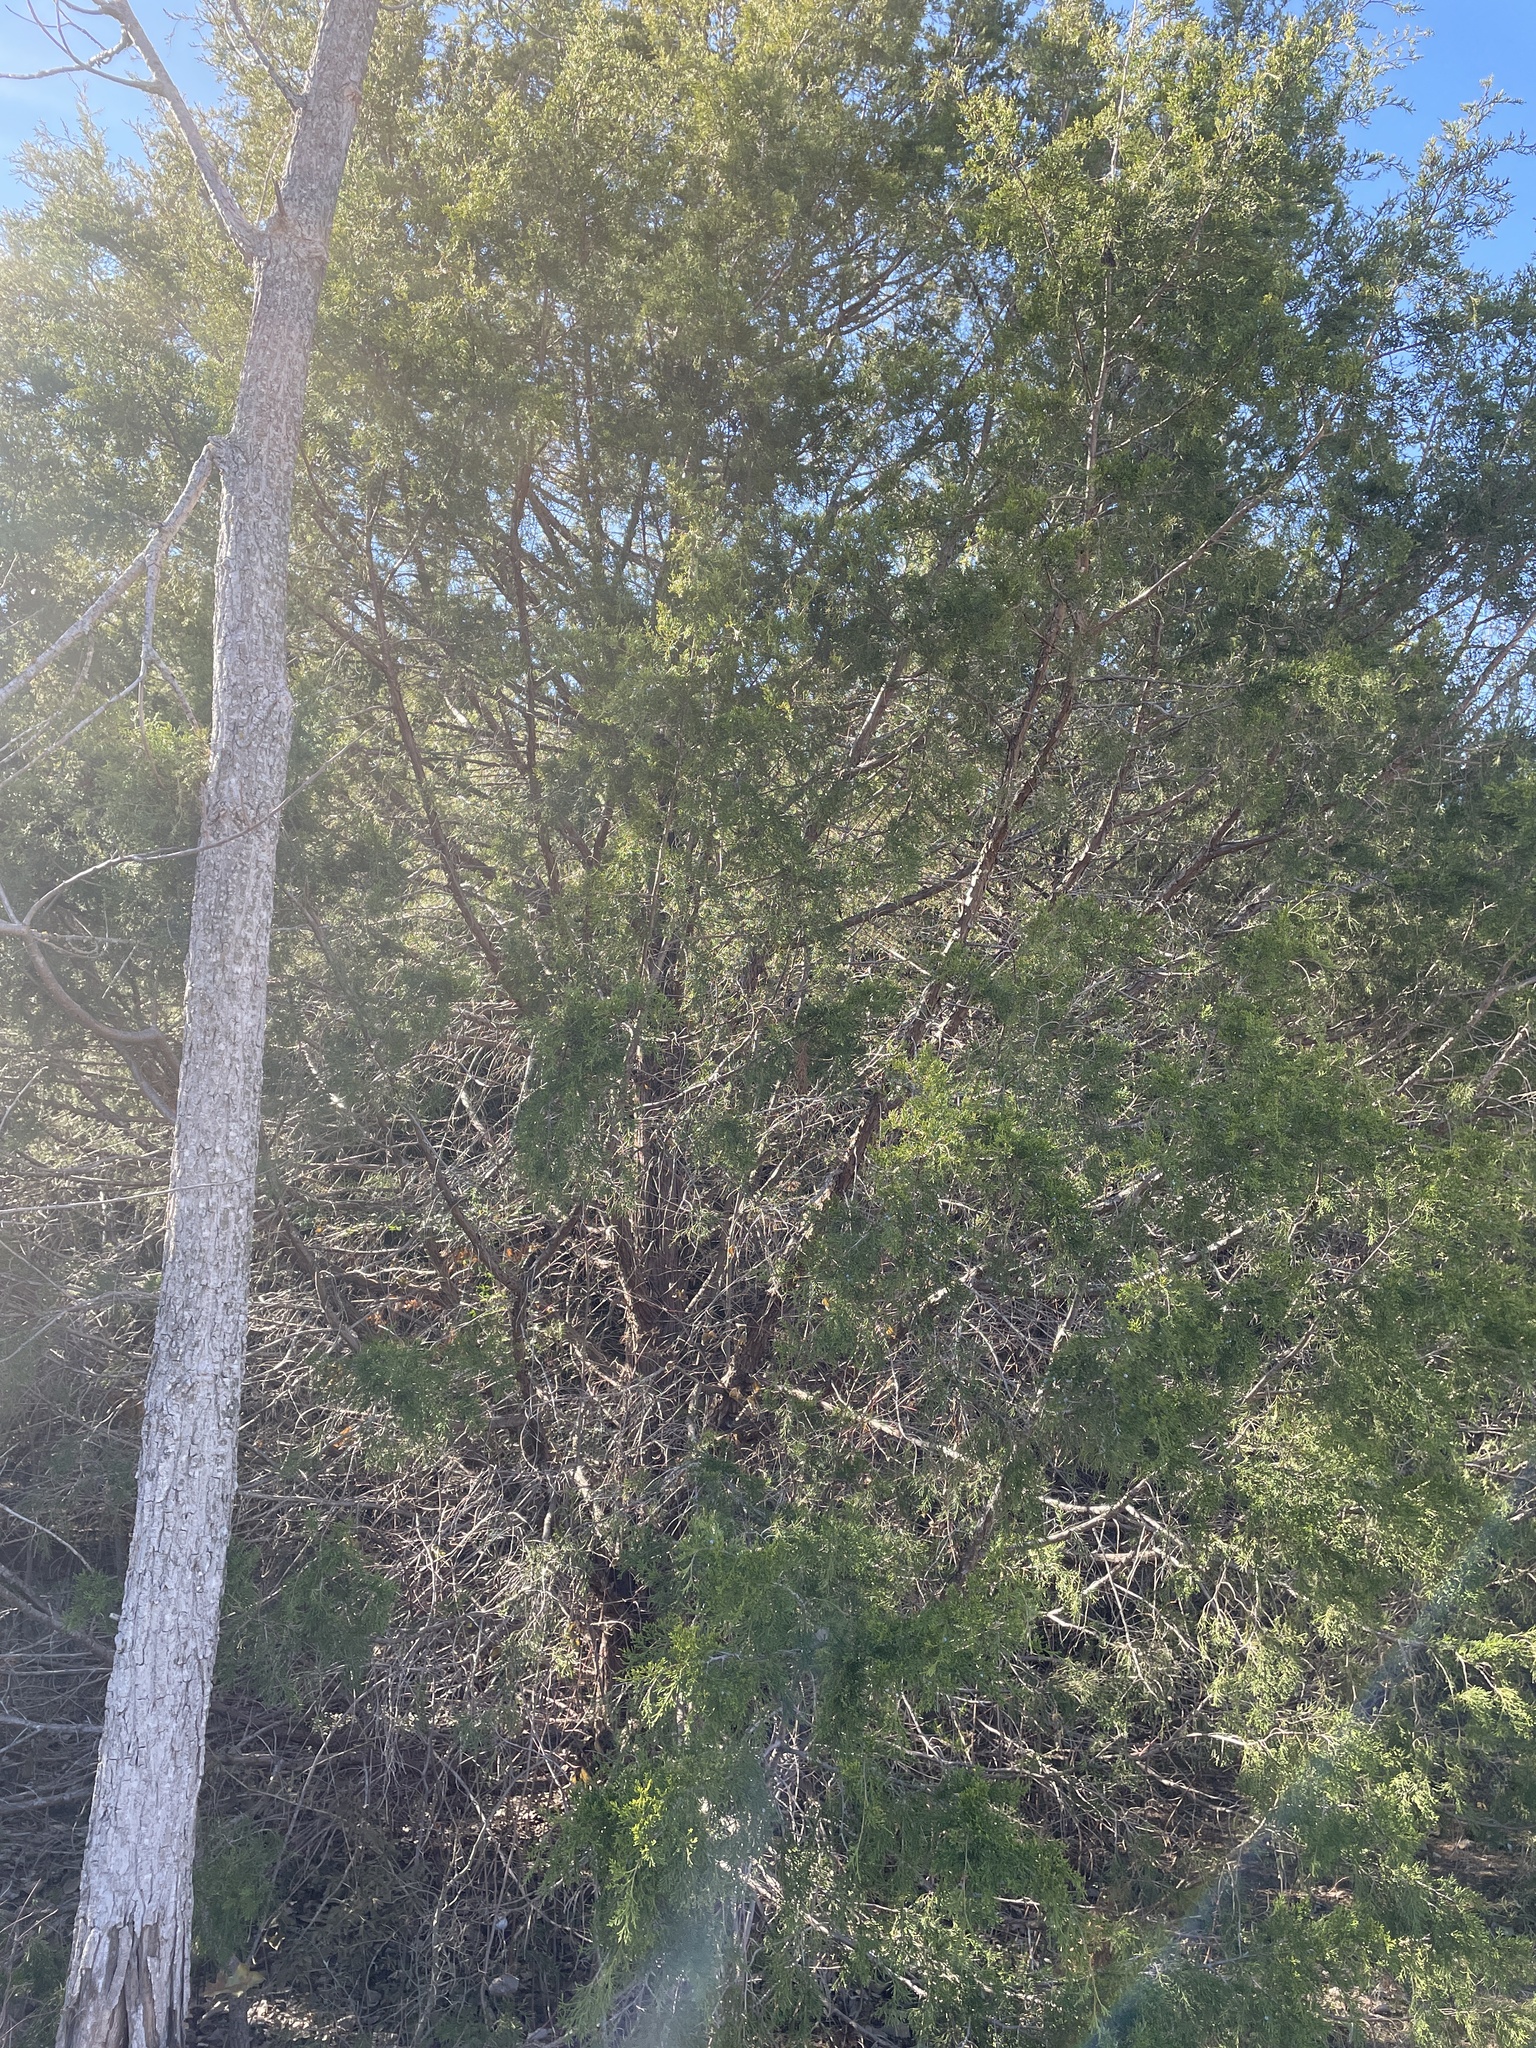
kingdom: Plantae
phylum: Tracheophyta
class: Pinopsida
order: Pinales
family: Cupressaceae
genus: Juniperus
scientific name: Juniperus virginiana
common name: Red juniper
